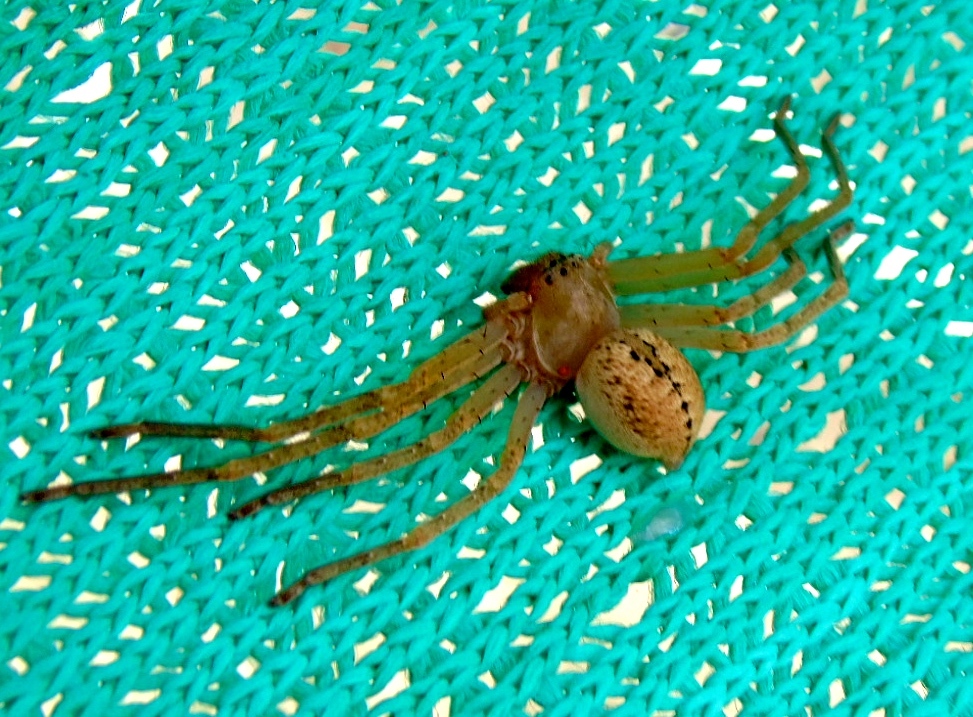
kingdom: Animalia
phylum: Arthropoda
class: Arachnida
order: Araneae
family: Sparassidae
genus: Curicaberis
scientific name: Curicaberis culiacan
